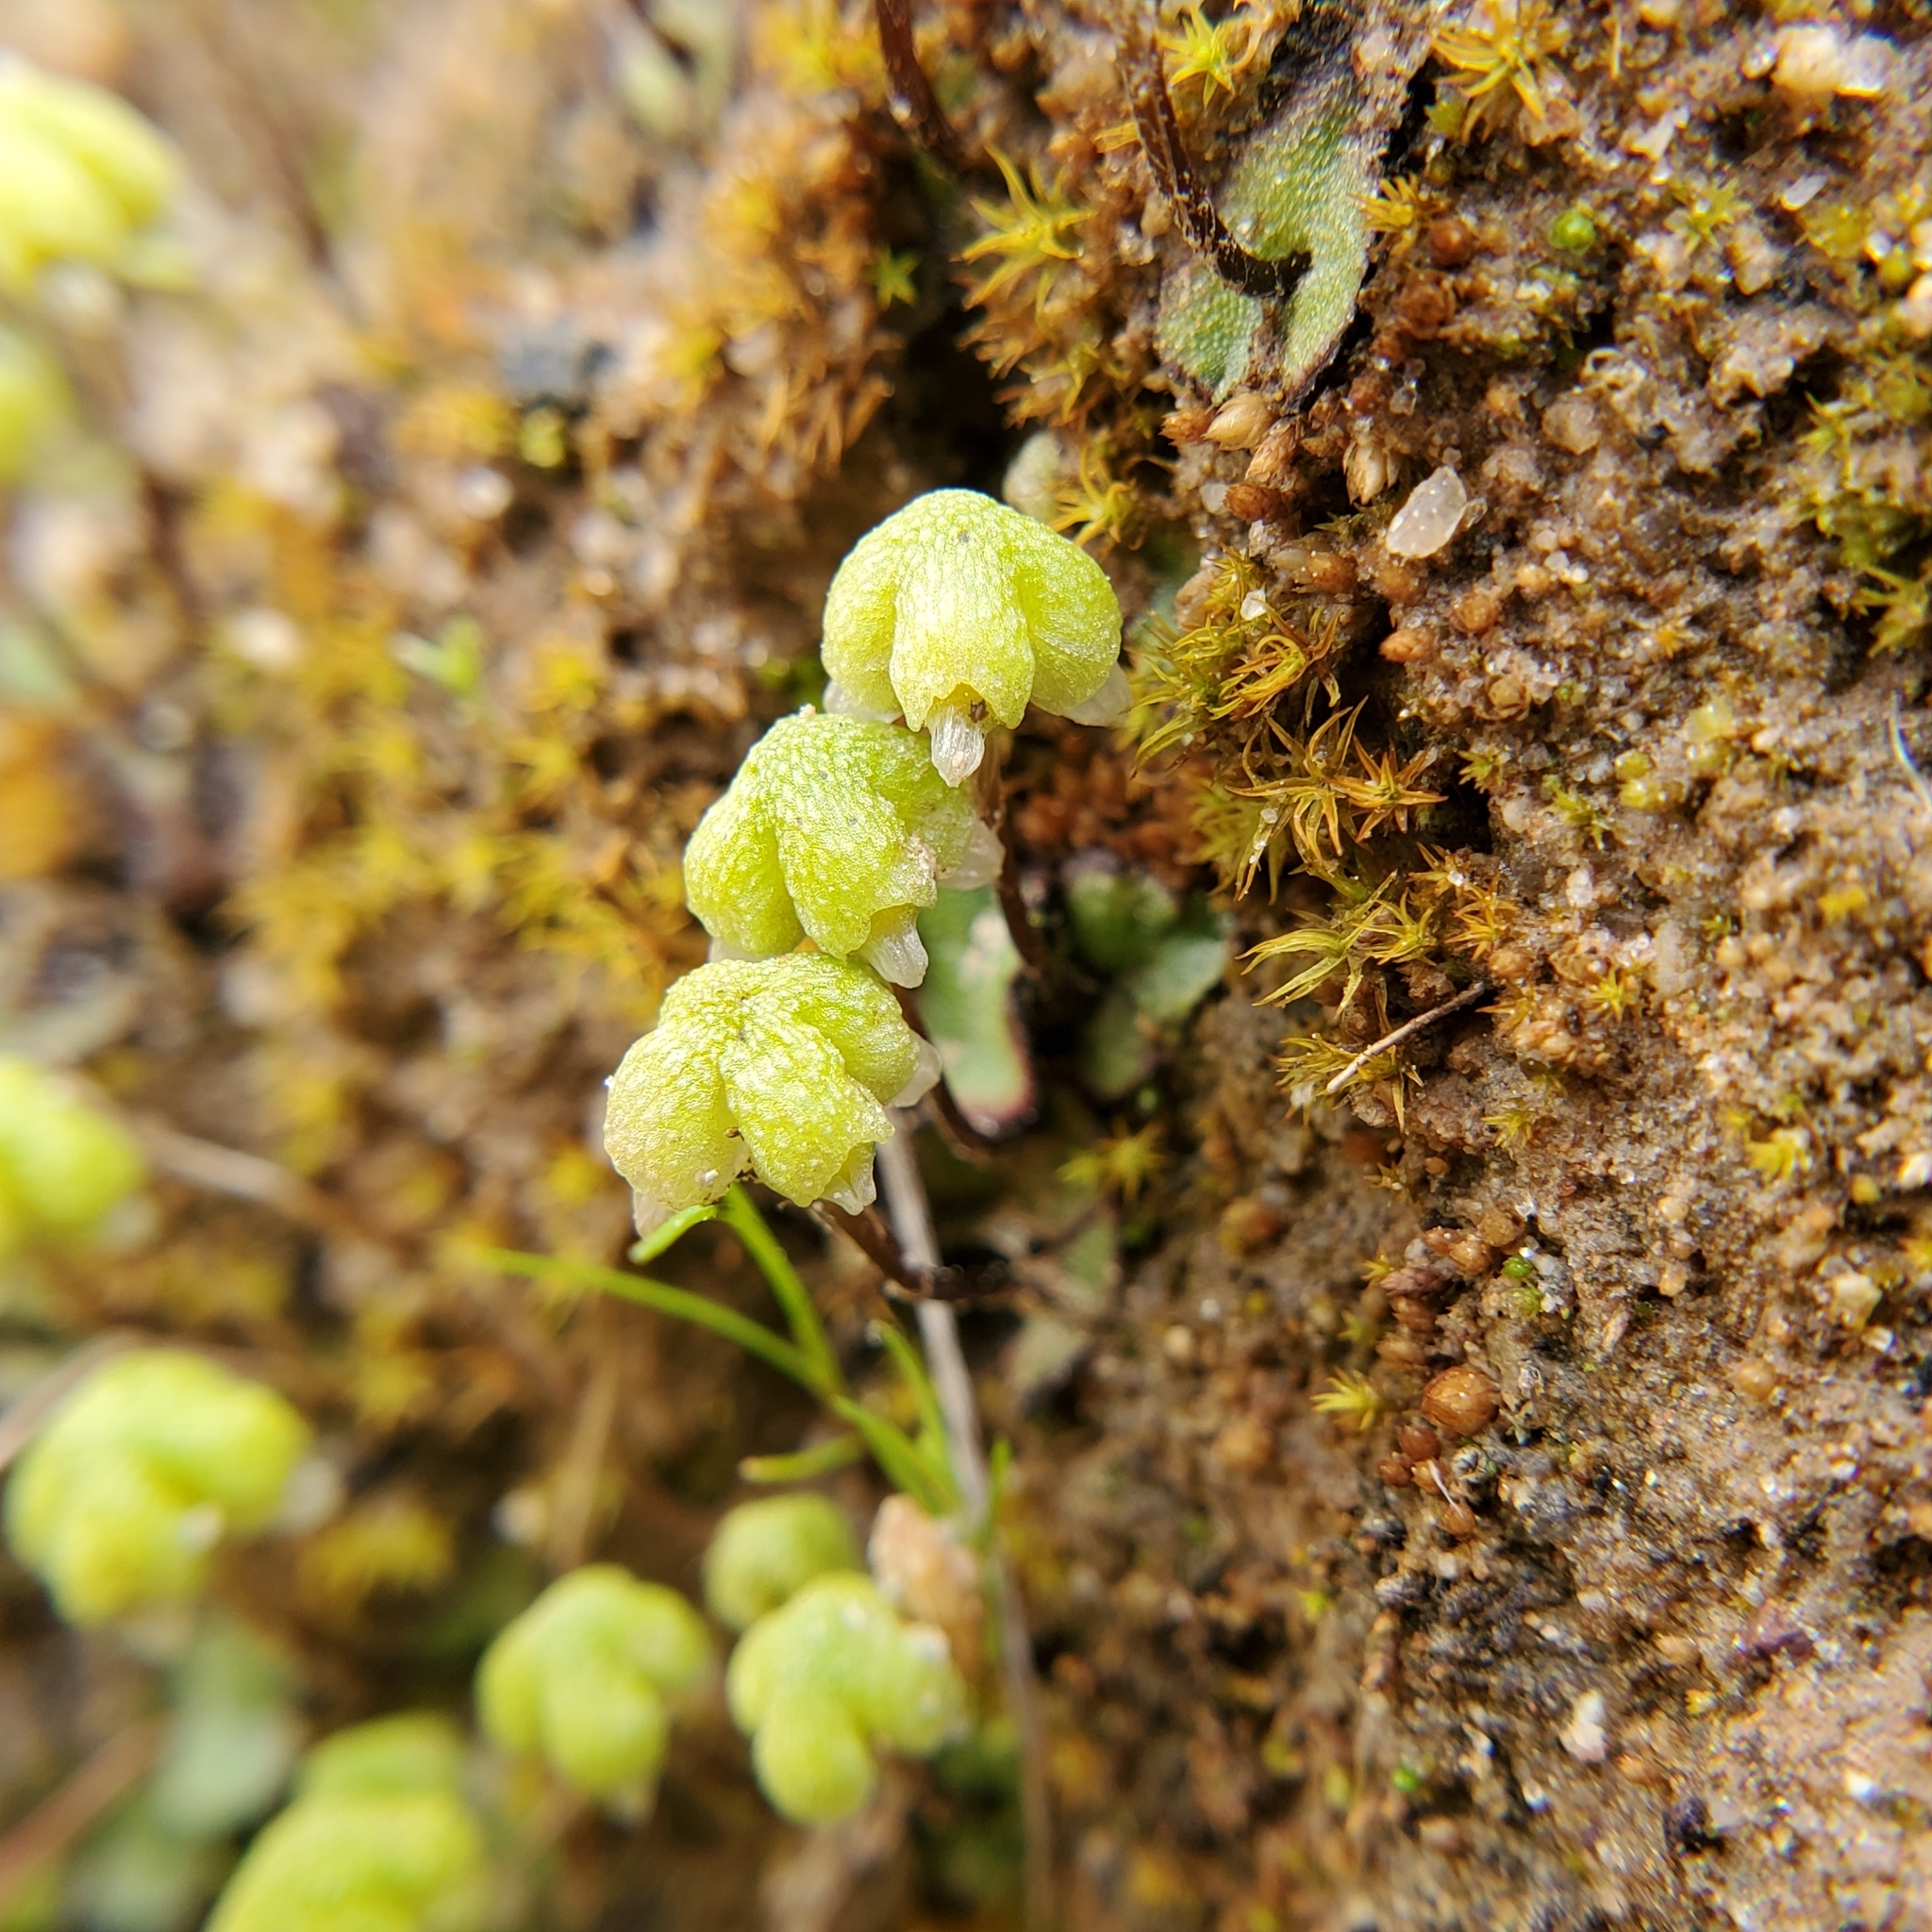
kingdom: Plantae
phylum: Marchantiophyta
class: Marchantiopsida
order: Marchantiales
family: Aytoniaceae
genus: Asterella
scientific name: Asterella californica
